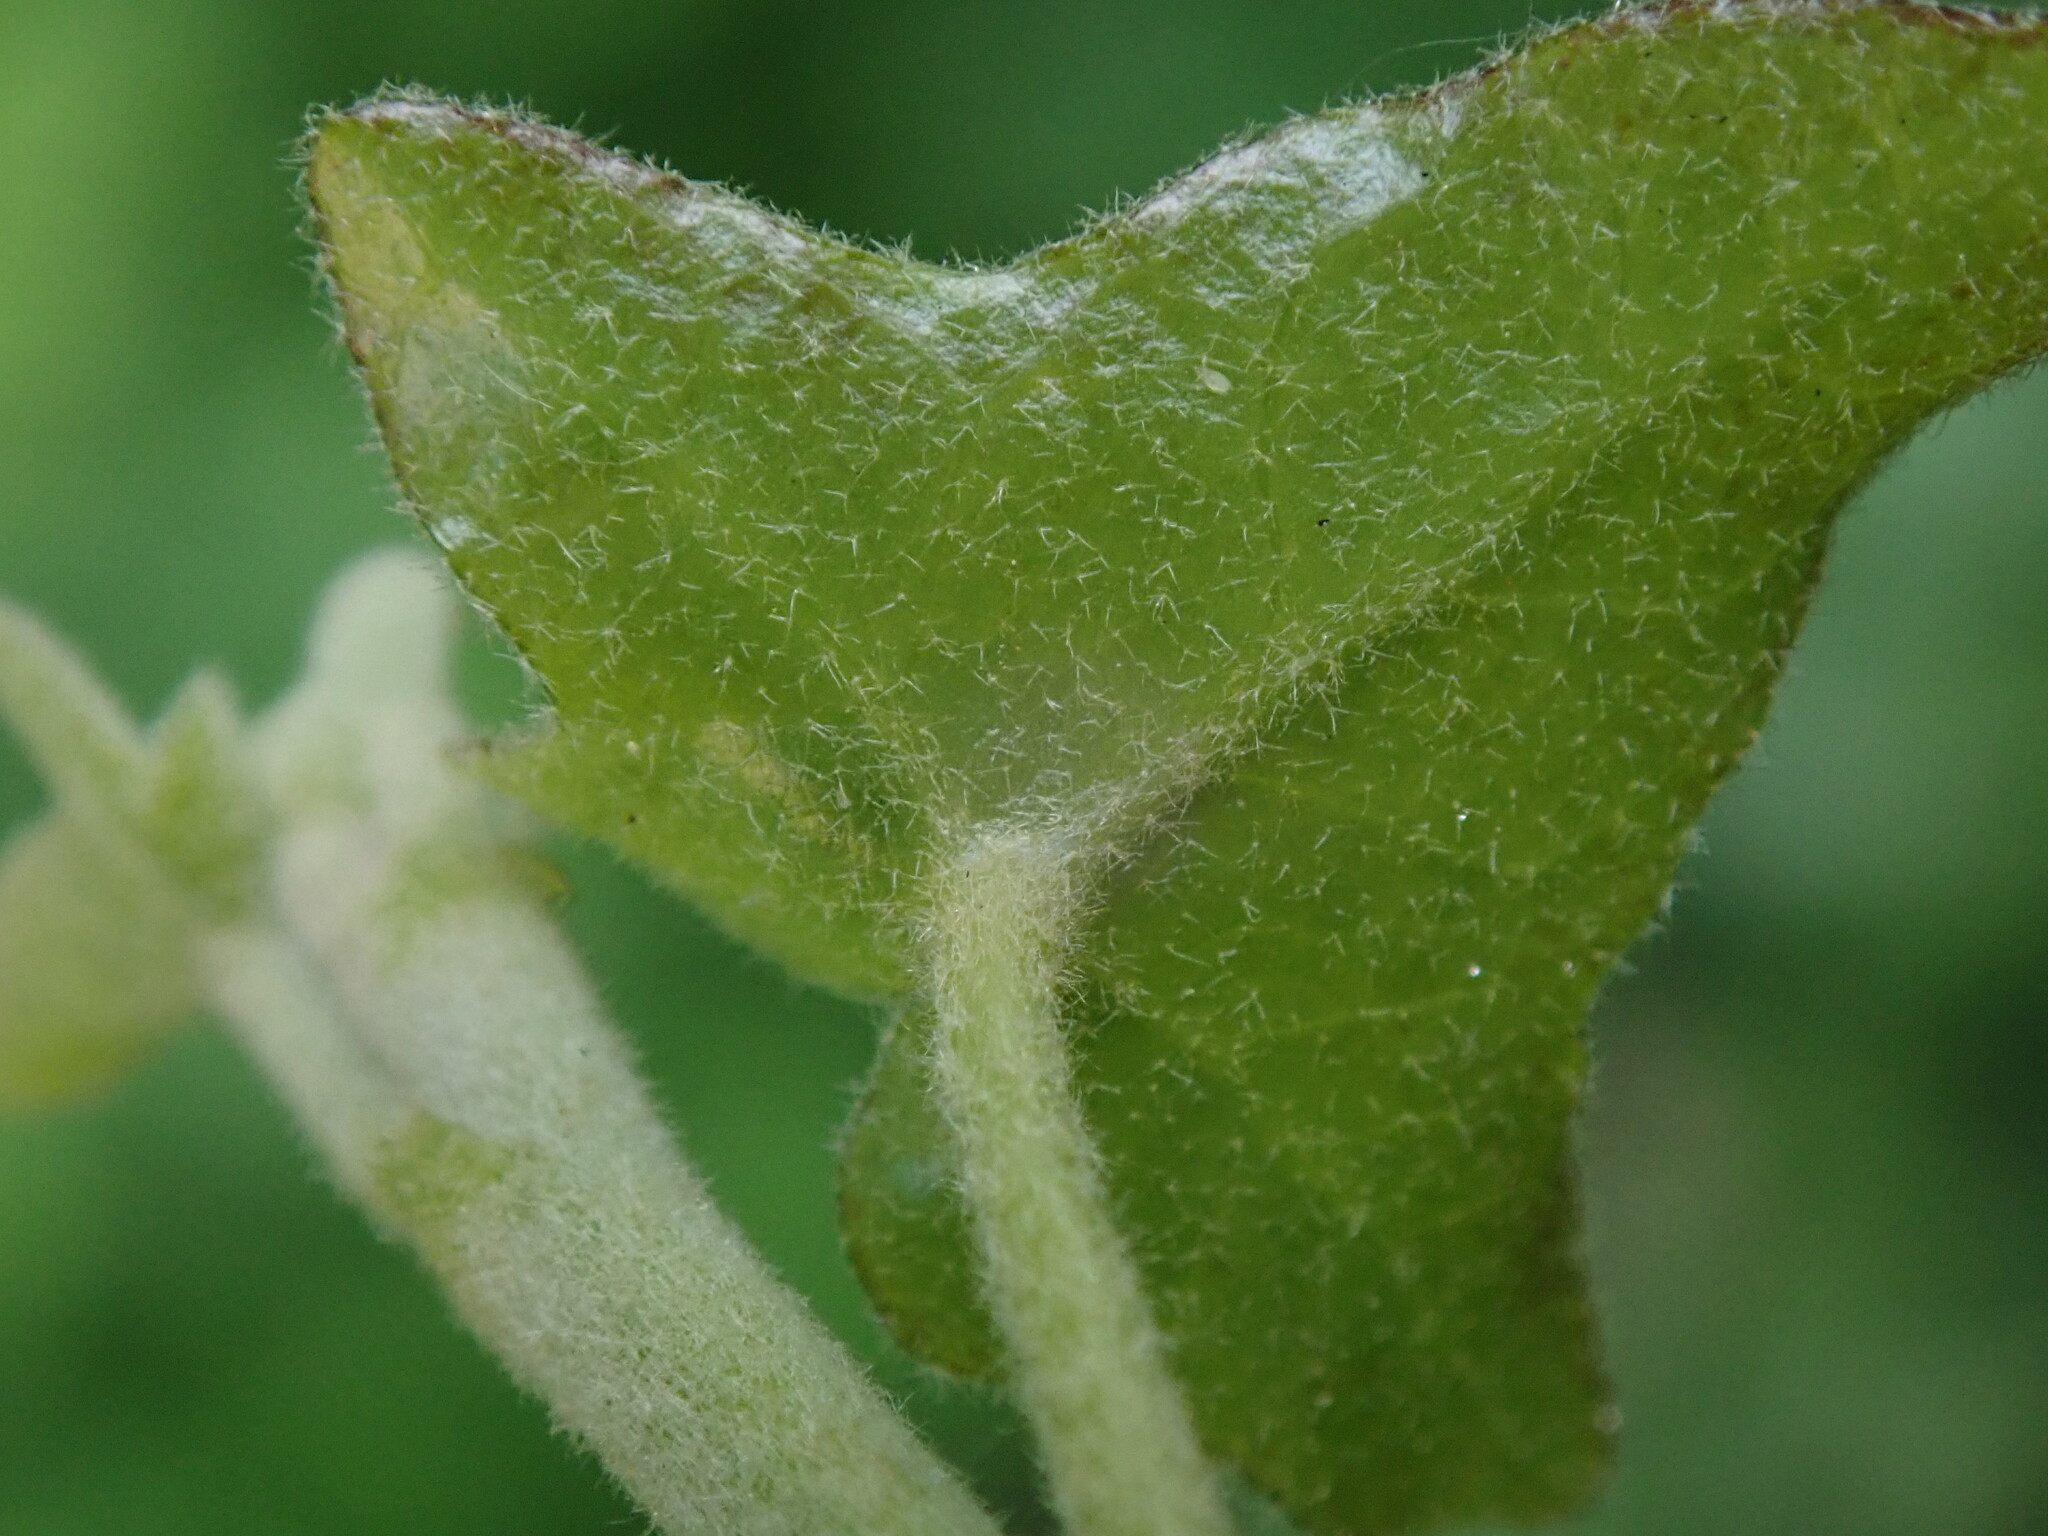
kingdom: Plantae
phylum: Tracheophyta
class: Magnoliopsida
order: Apiales
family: Araliaceae
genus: Hedera
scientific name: Hedera helix
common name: Ivy
